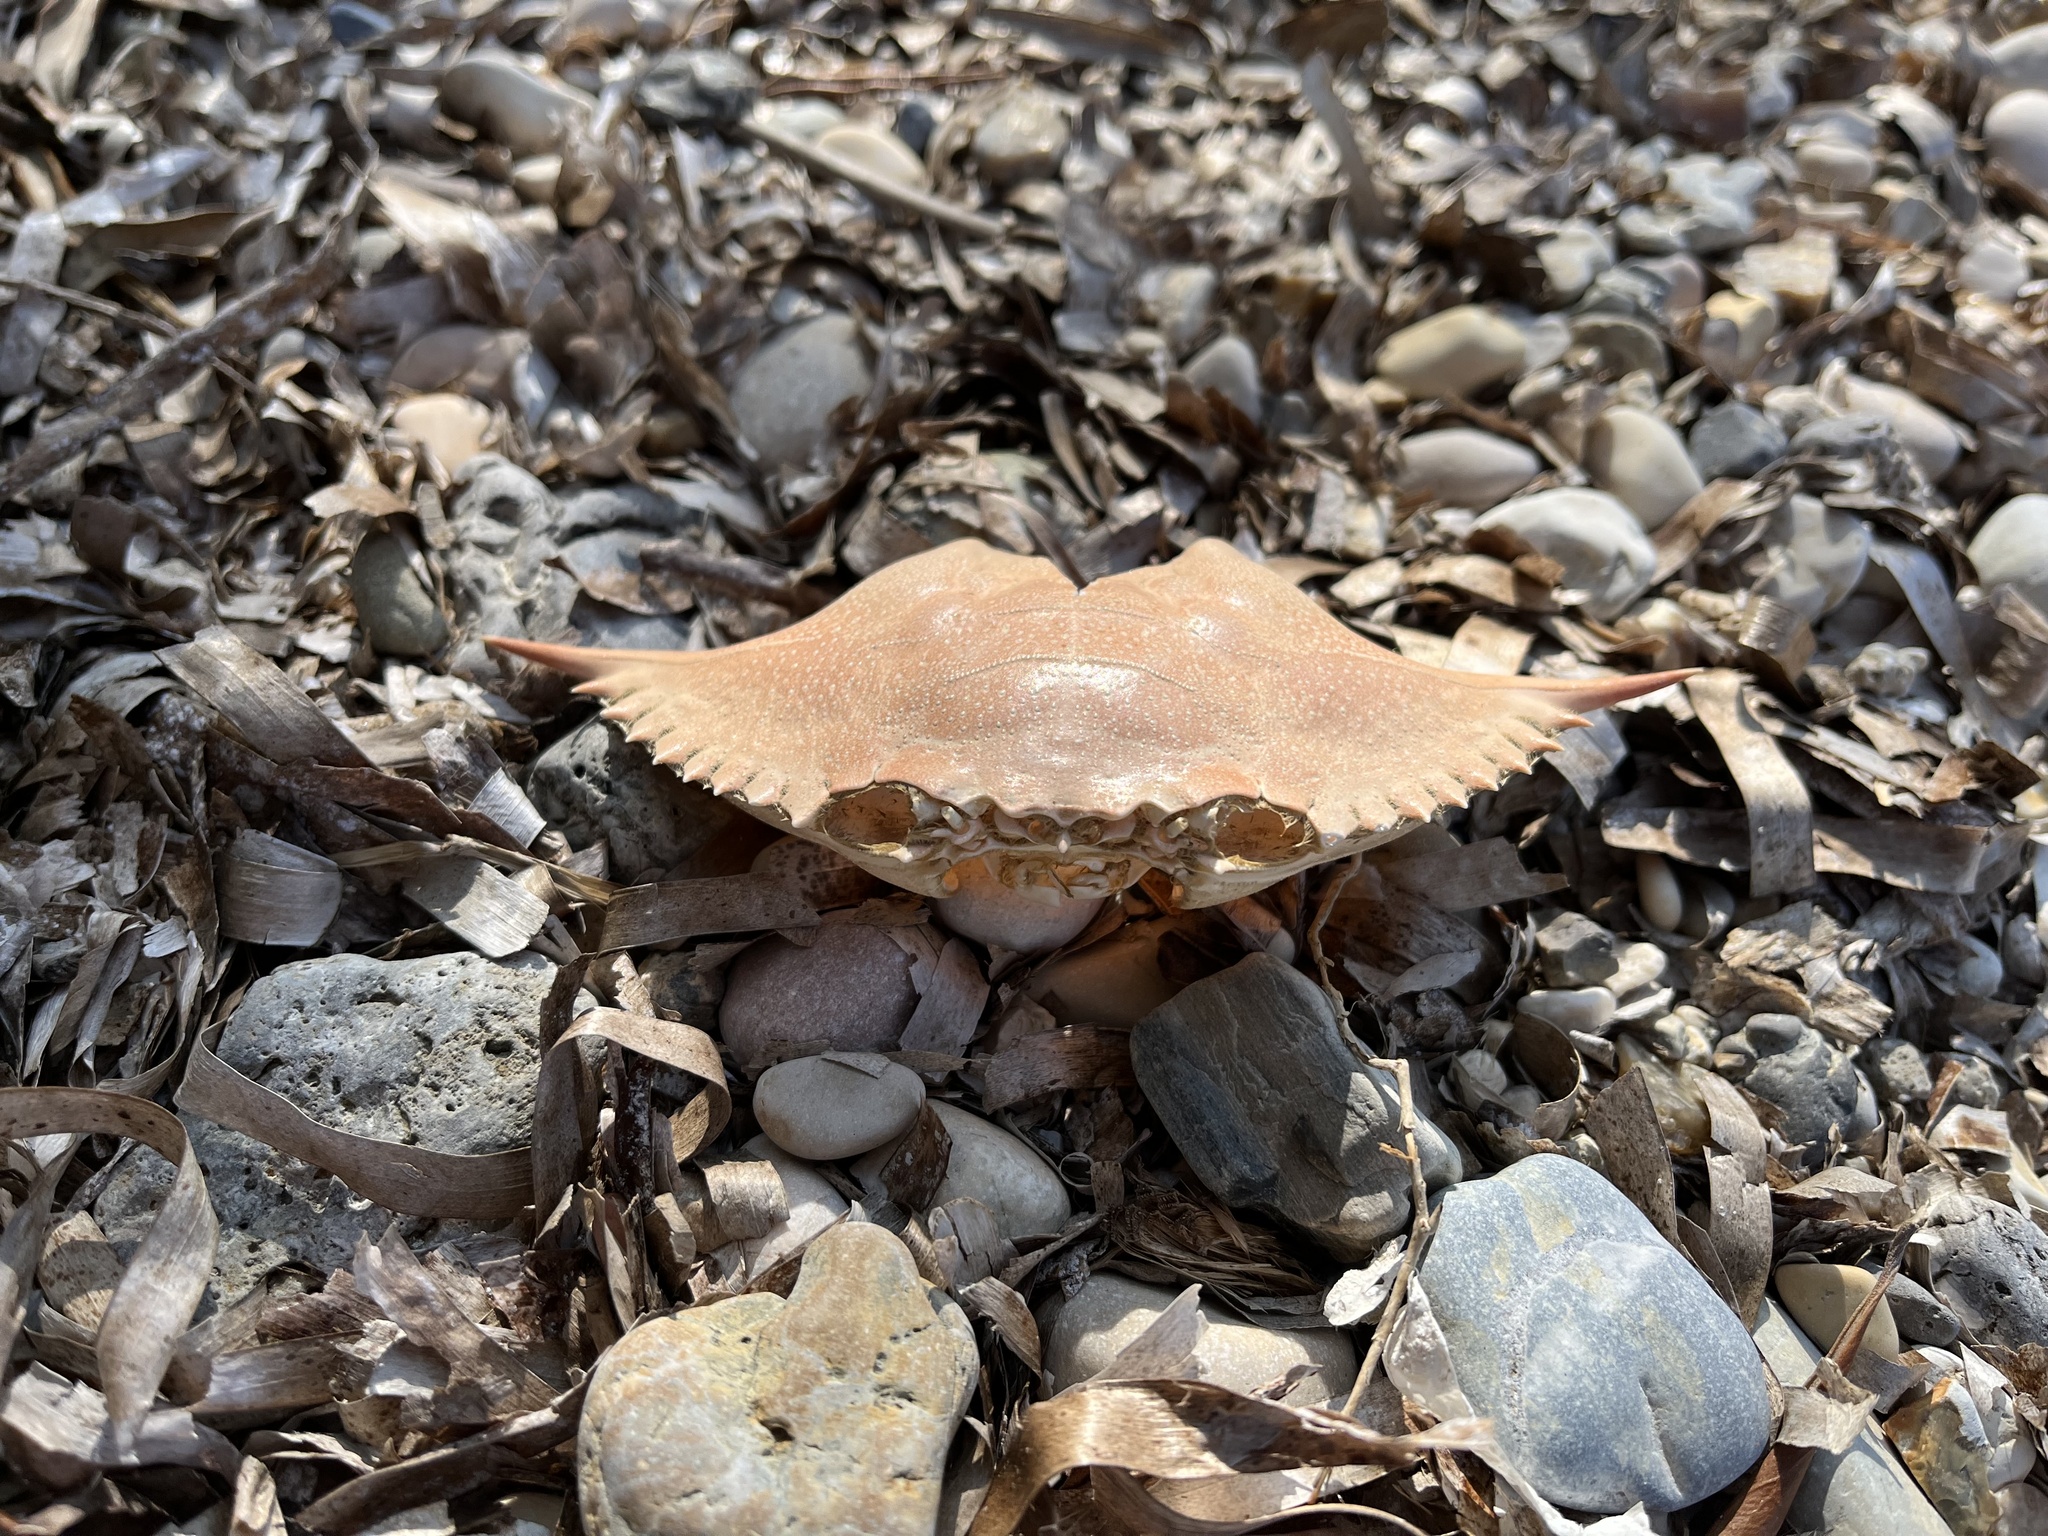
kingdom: Animalia
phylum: Arthropoda
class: Malacostraca
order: Decapoda
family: Portunidae
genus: Callinectes
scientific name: Callinectes sapidus
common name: Blue crab
